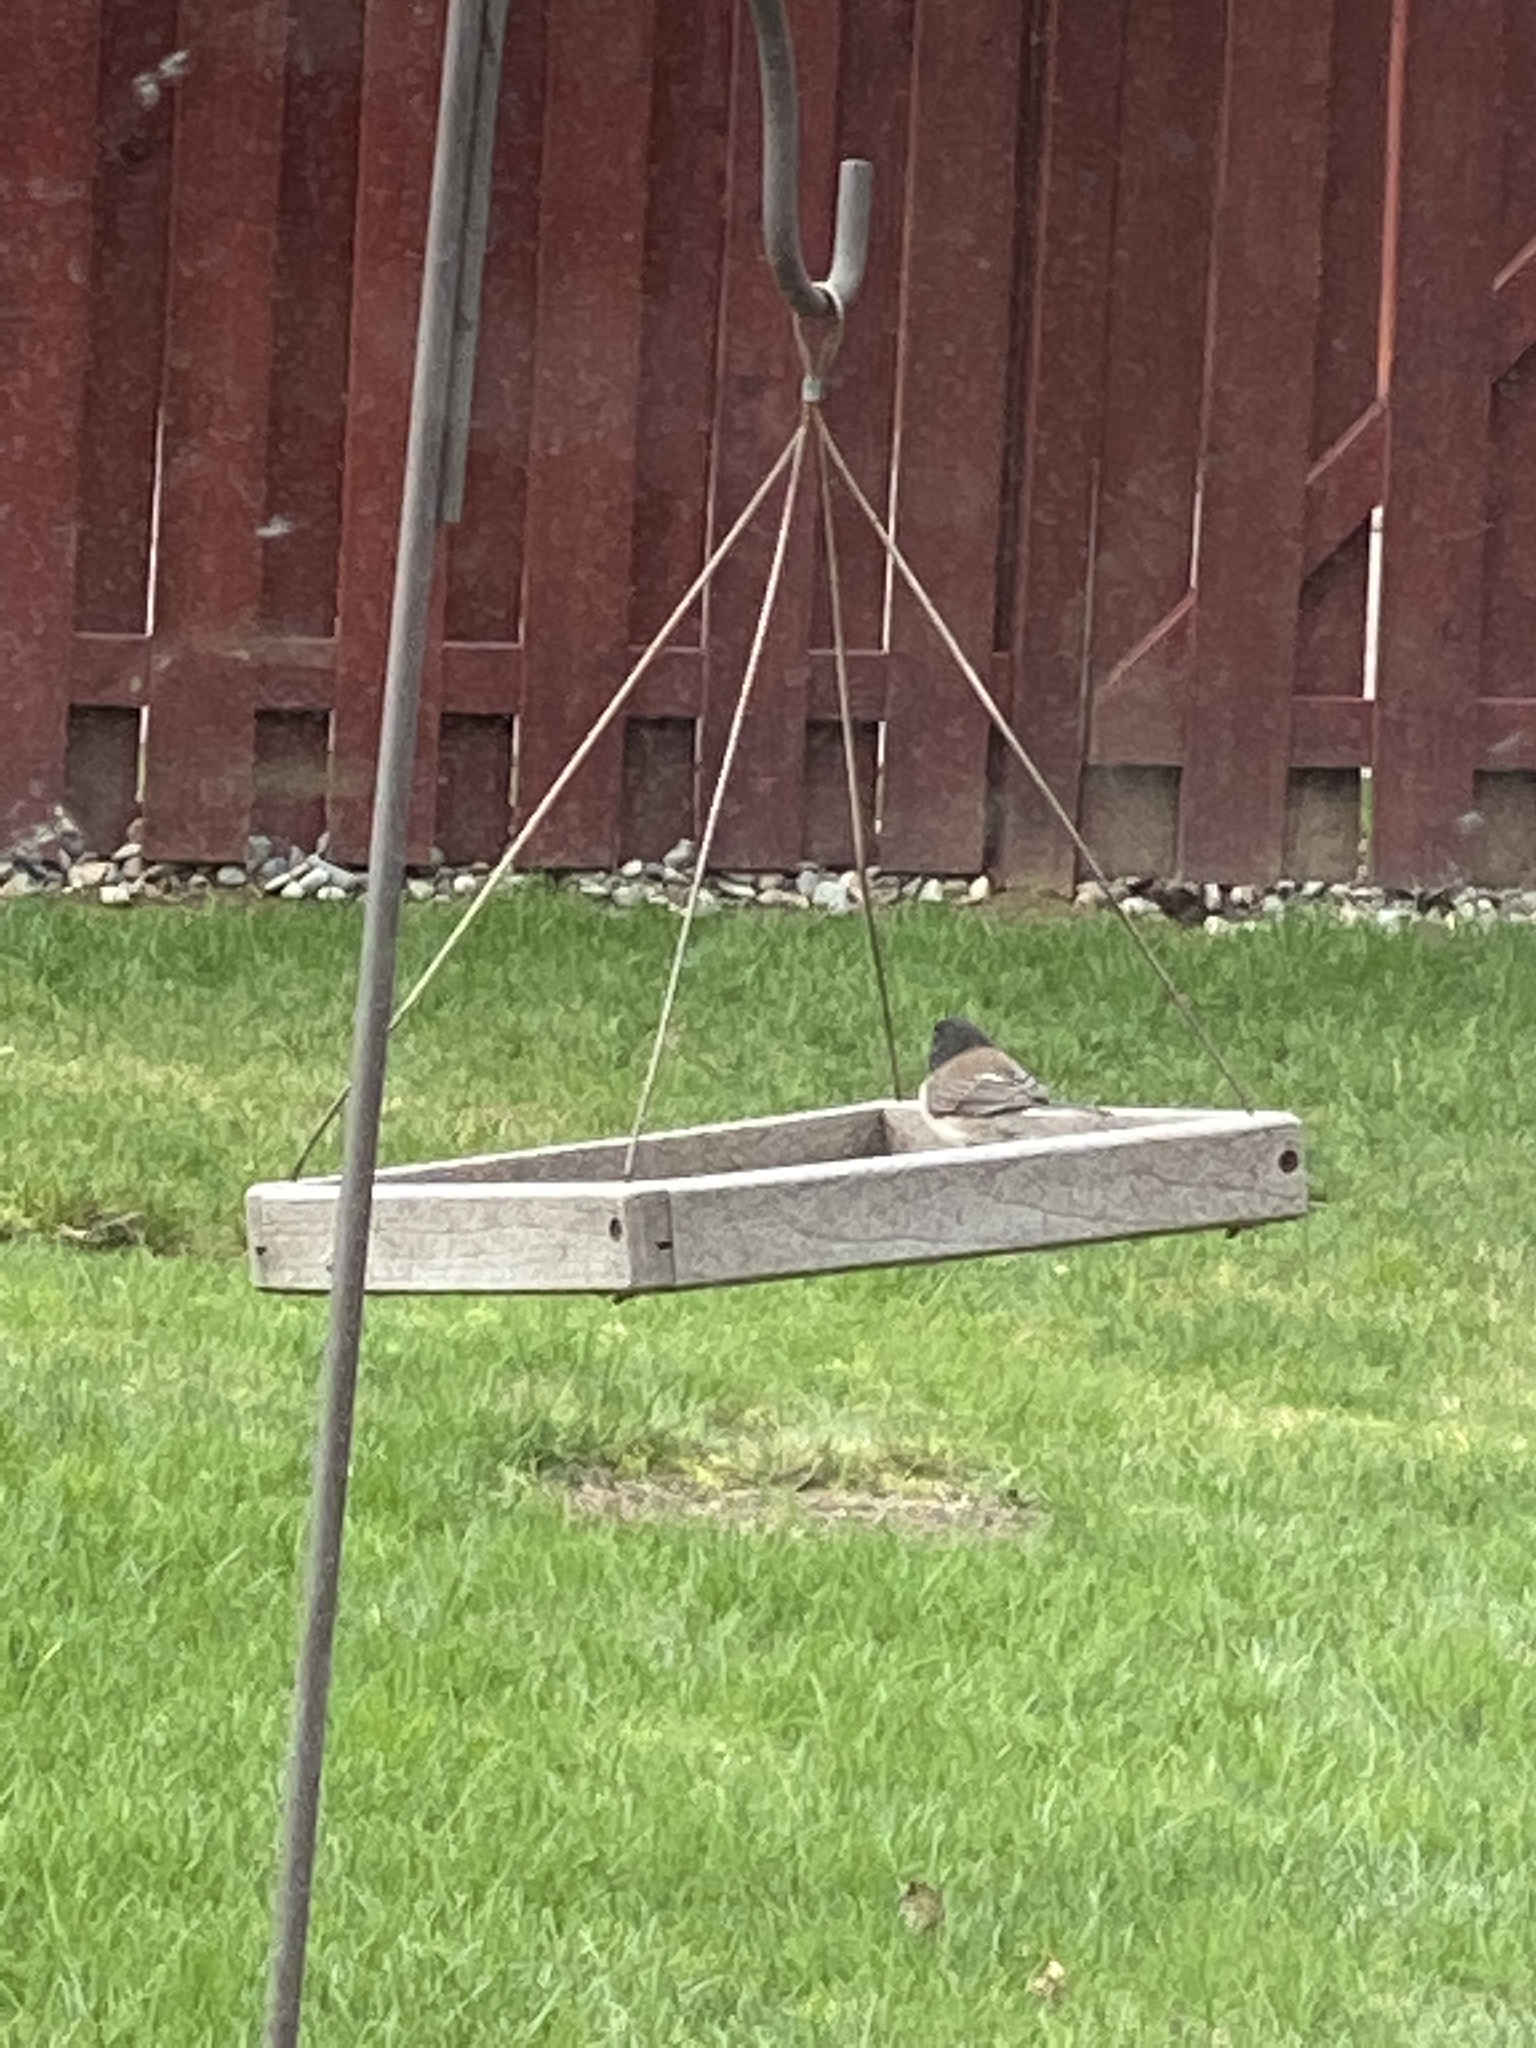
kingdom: Animalia
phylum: Chordata
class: Aves
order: Passeriformes
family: Passerellidae
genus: Junco
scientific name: Junco hyemalis
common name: Dark-eyed junco
